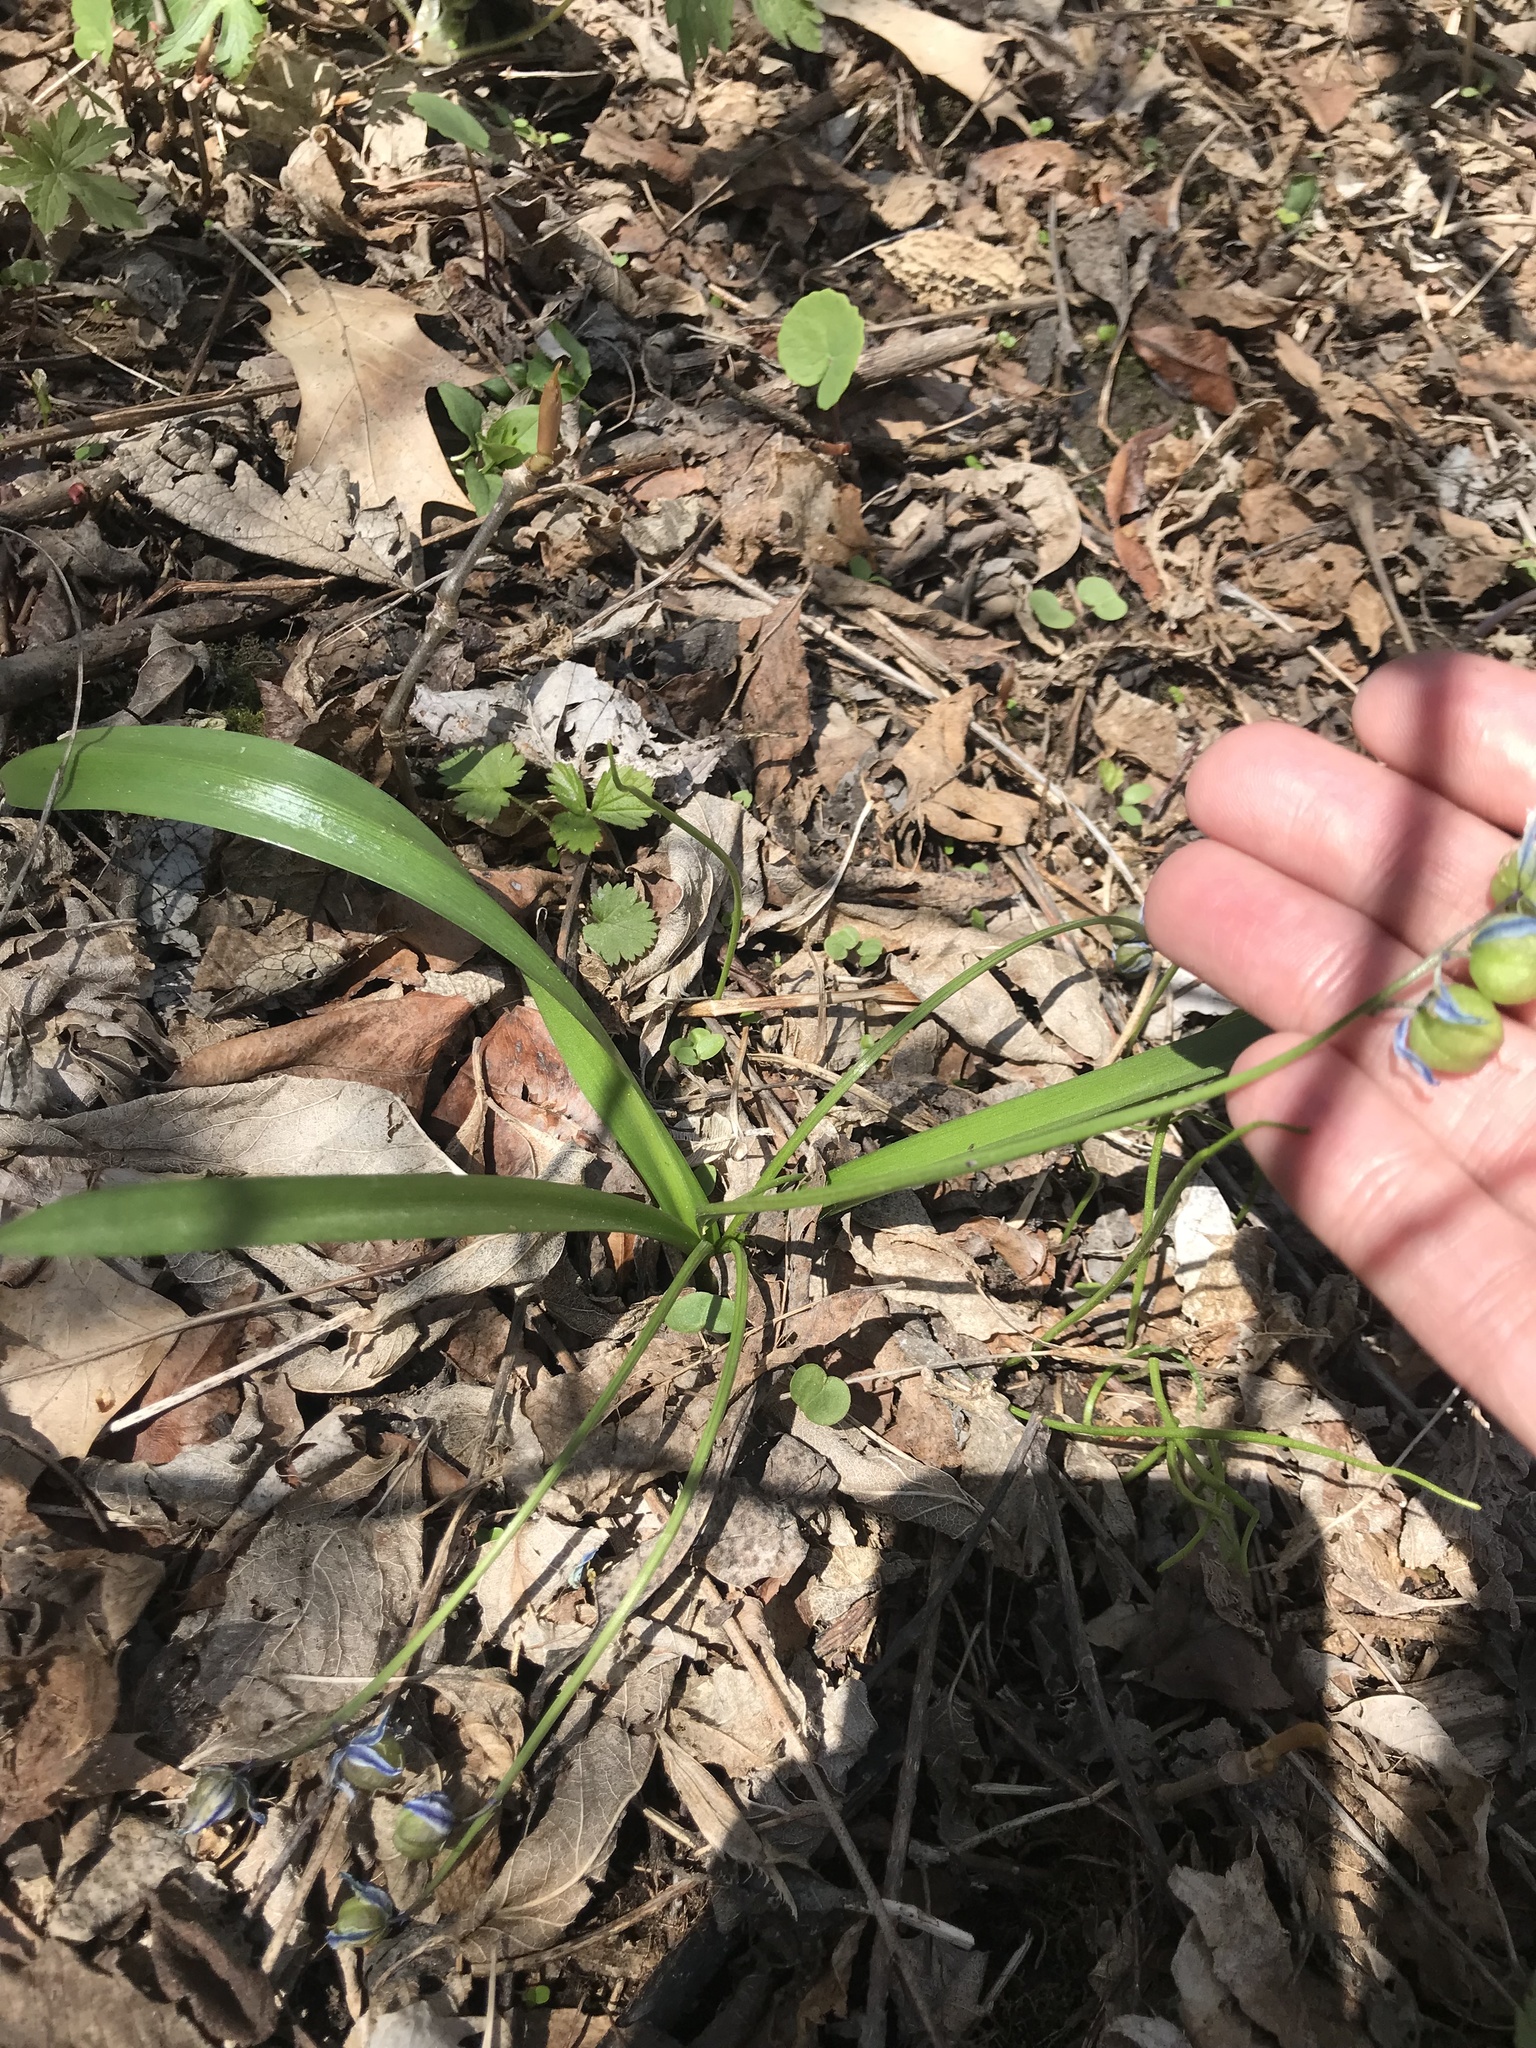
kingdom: Plantae
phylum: Tracheophyta
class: Liliopsida
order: Asparagales
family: Asparagaceae
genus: Scilla
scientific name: Scilla siberica
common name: Siberian squill
